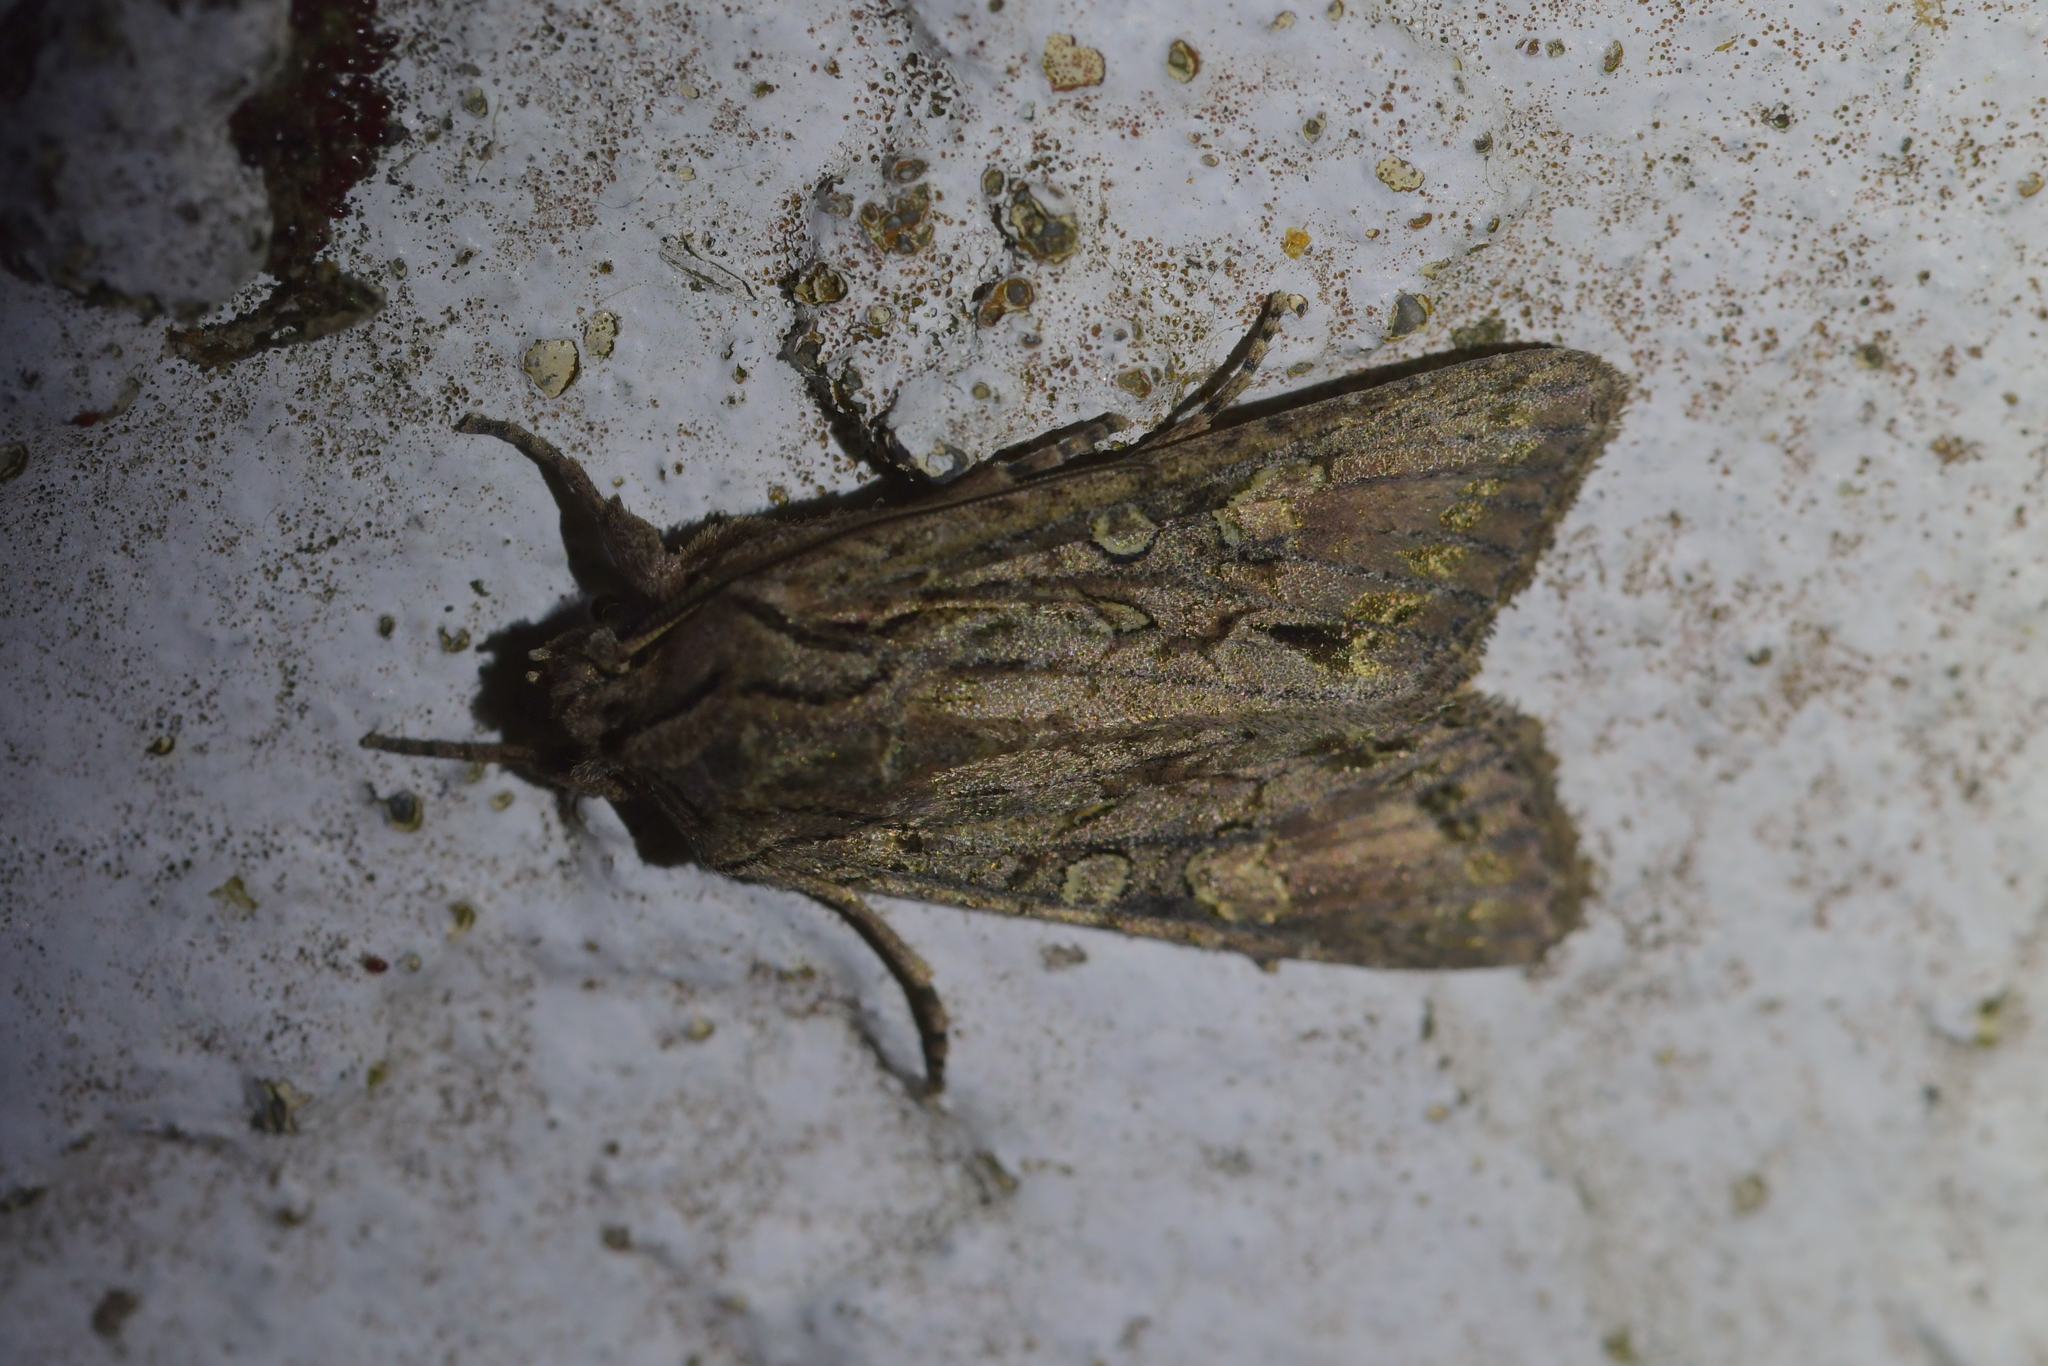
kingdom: Animalia
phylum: Arthropoda
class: Insecta
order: Lepidoptera
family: Noctuidae
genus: Ichneutica
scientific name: Ichneutica mutans
